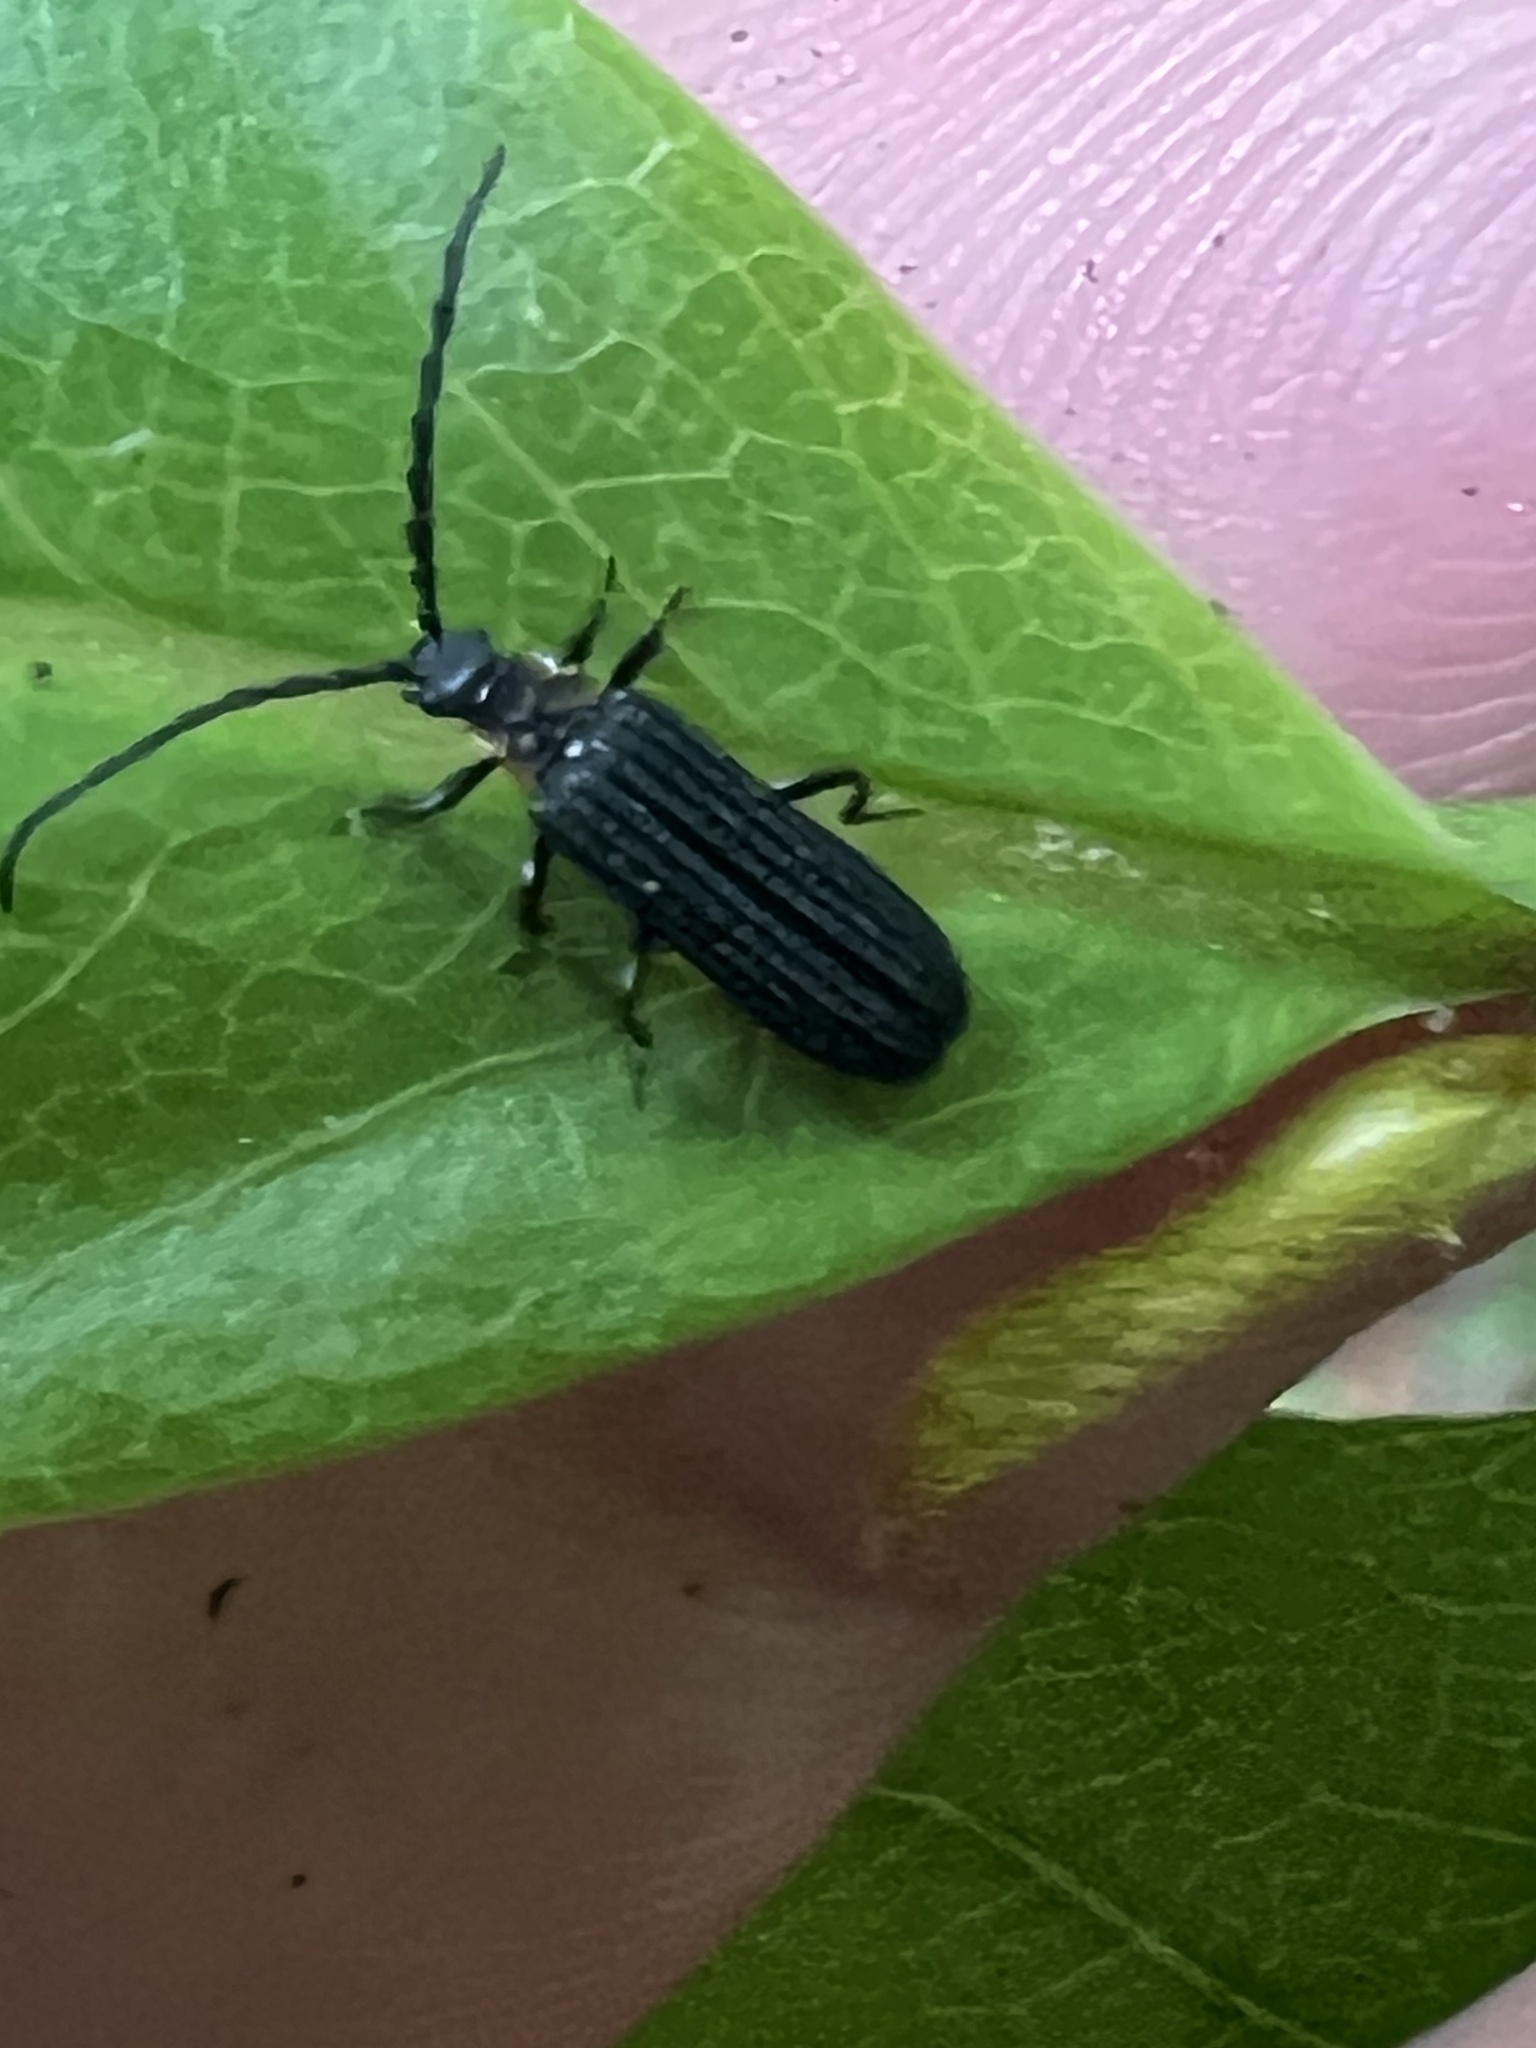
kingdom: Animalia
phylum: Arthropoda
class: Insecta
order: Coleoptera
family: Lycidae
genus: Erotides
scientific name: Erotides sculptilis
